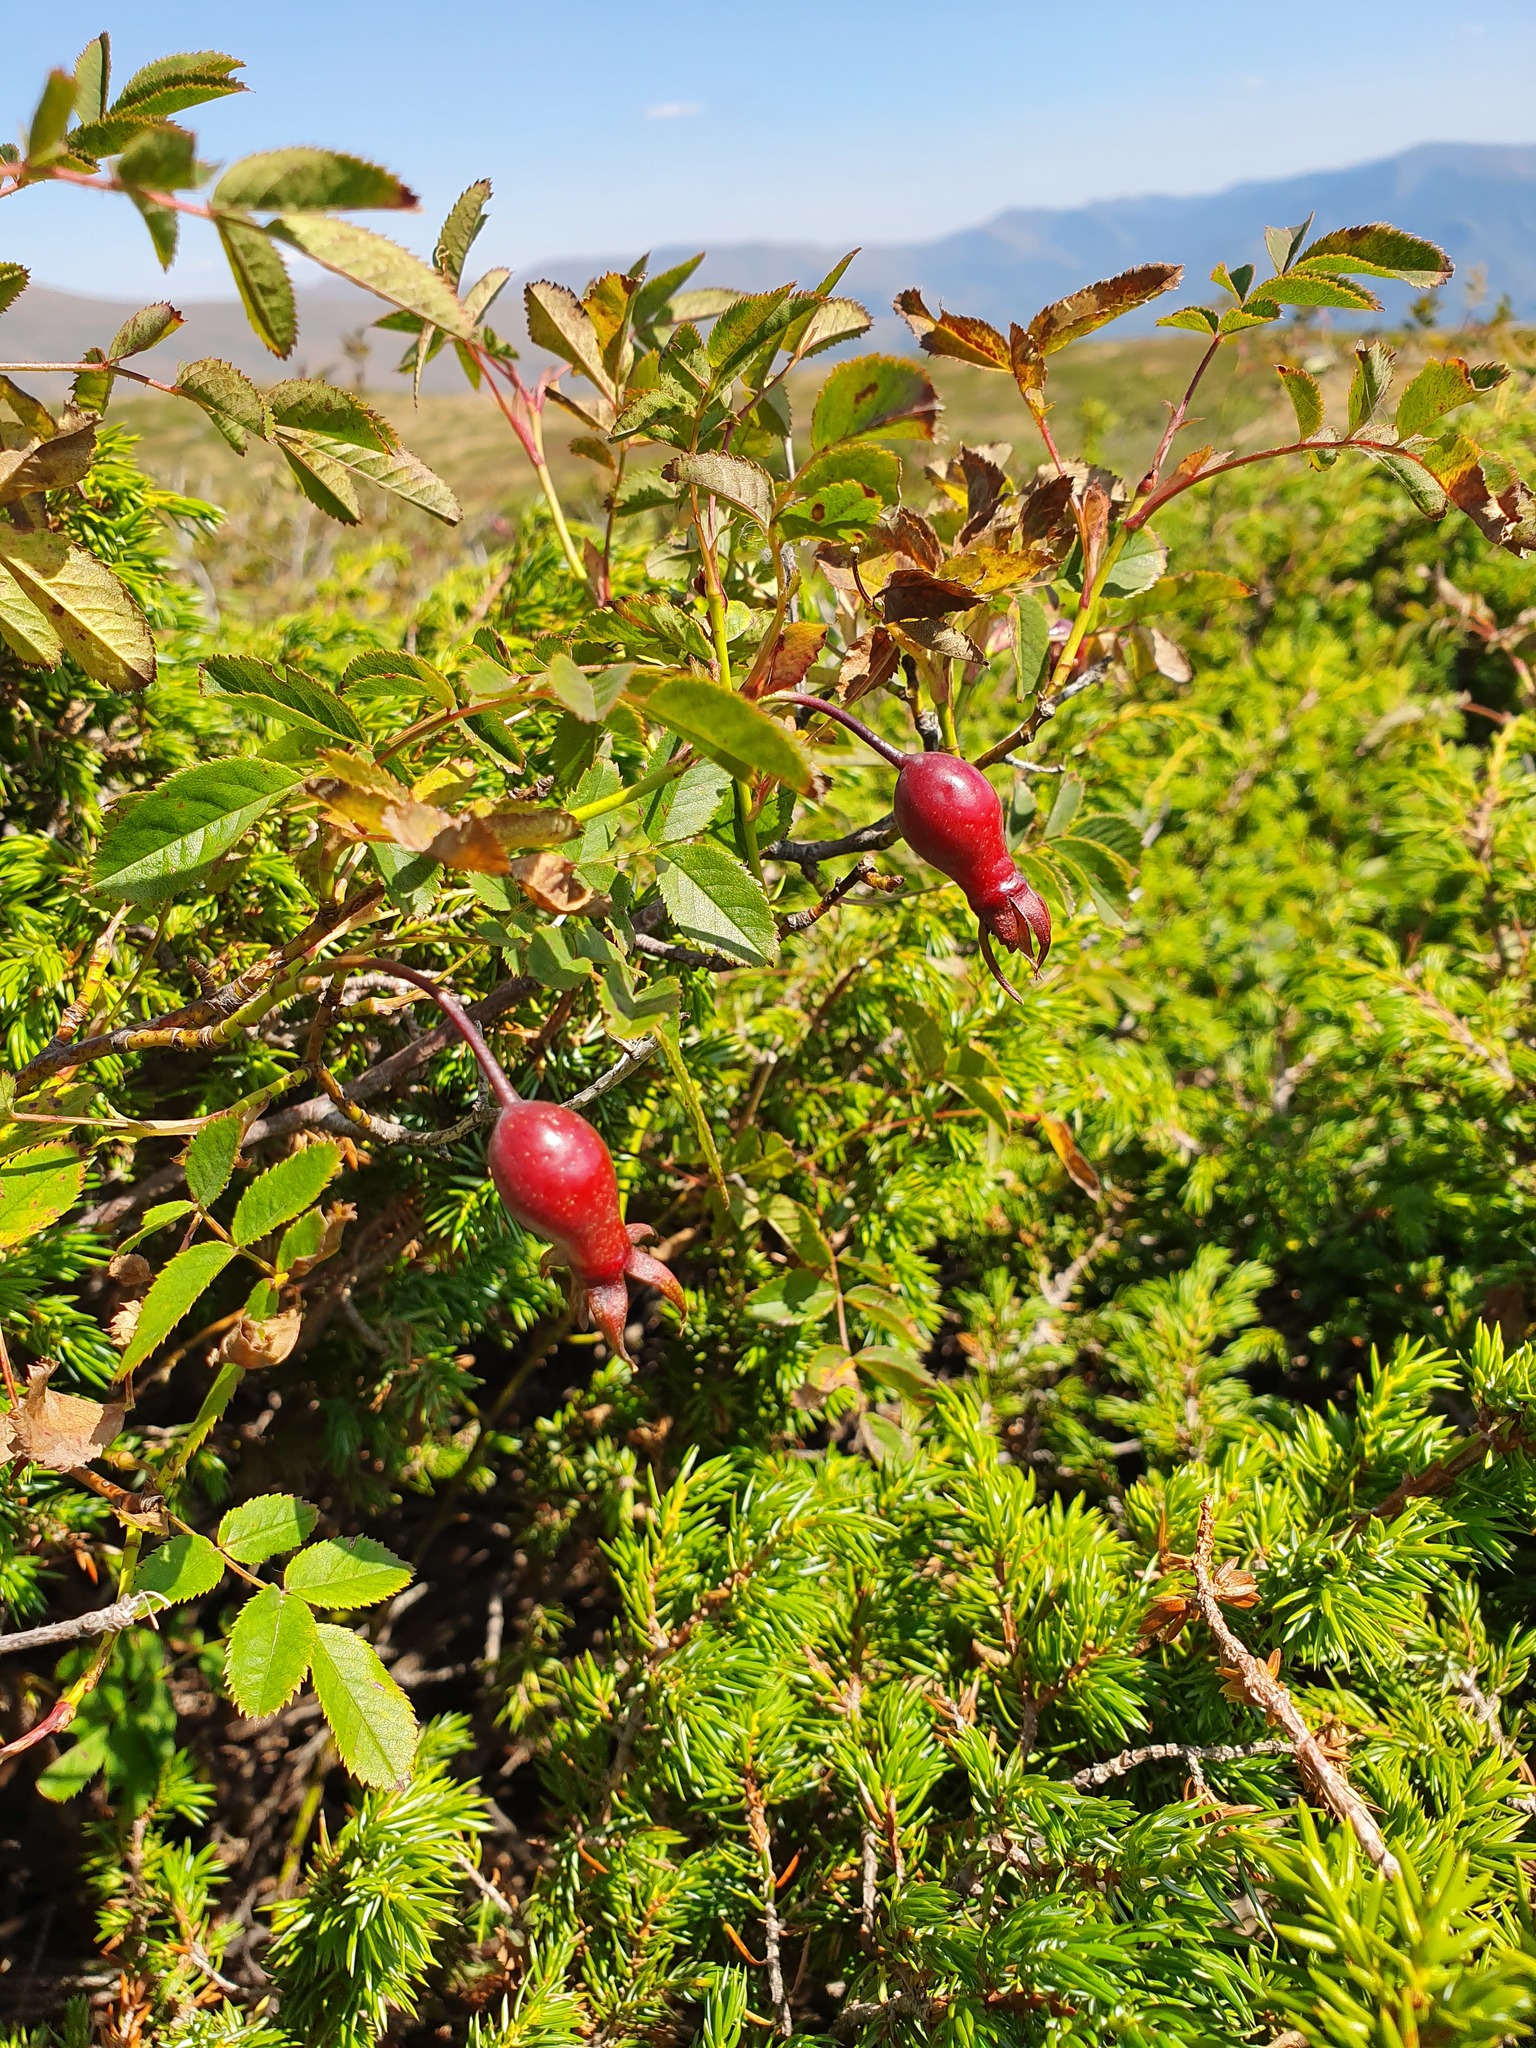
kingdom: Plantae
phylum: Tracheophyta
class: Magnoliopsida
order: Rosales
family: Rosaceae
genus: Rosa
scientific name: Rosa pendulina
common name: Alpine rose
